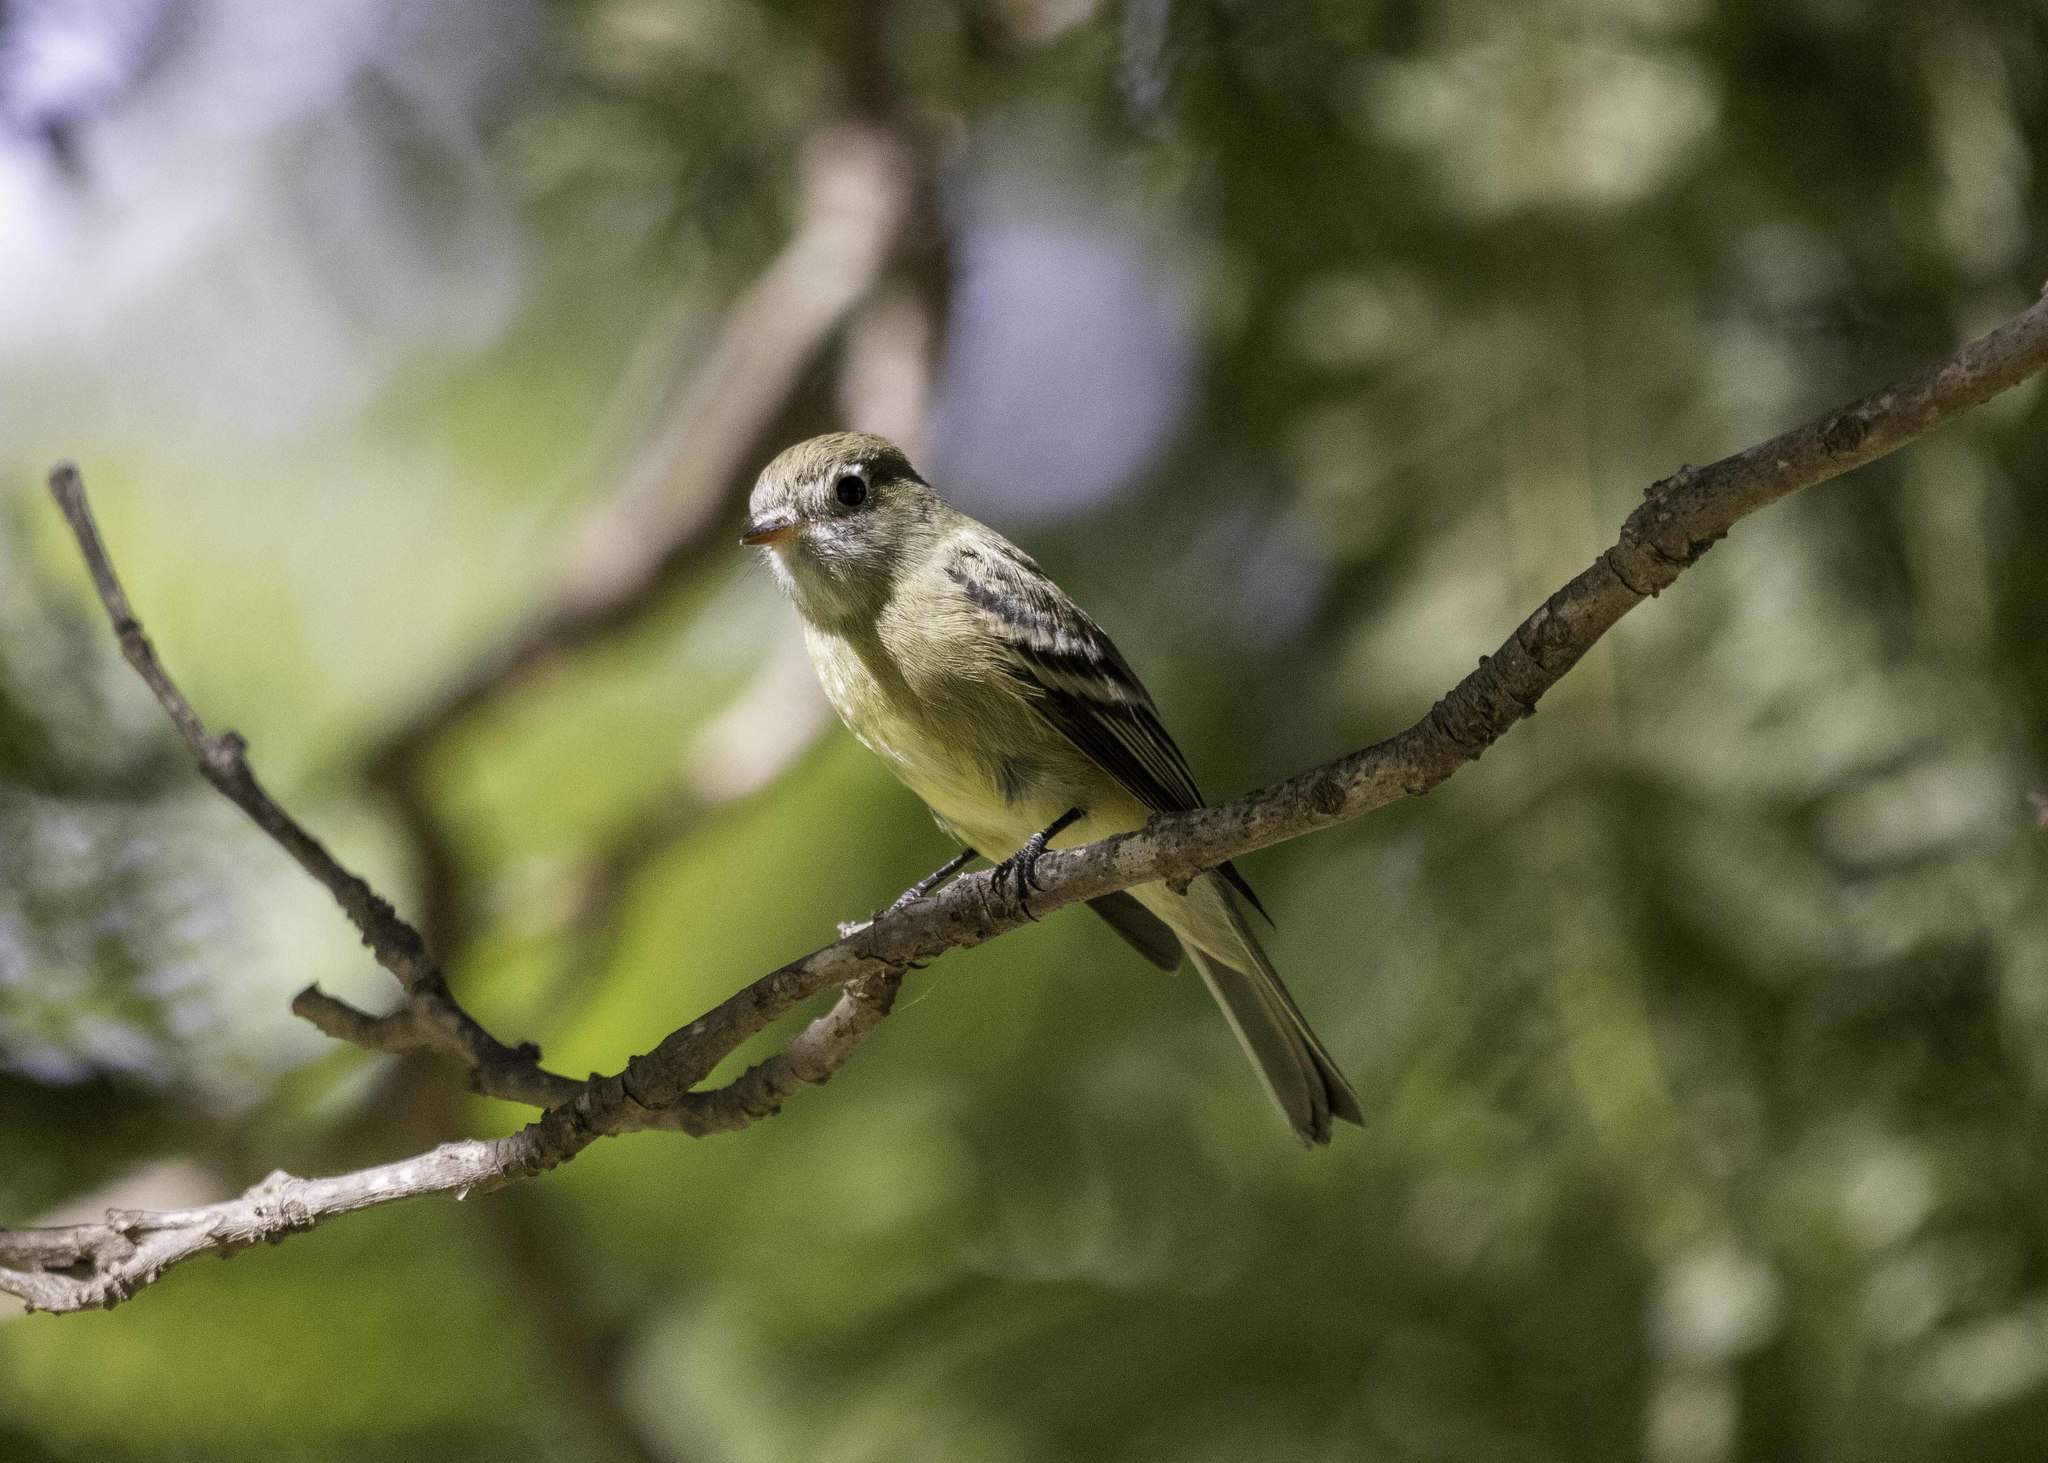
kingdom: Animalia
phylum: Chordata
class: Aves
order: Passeriformes
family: Tyrannidae
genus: Empidonax
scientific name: Empidonax hammondii
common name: Hammond's flycatcher
